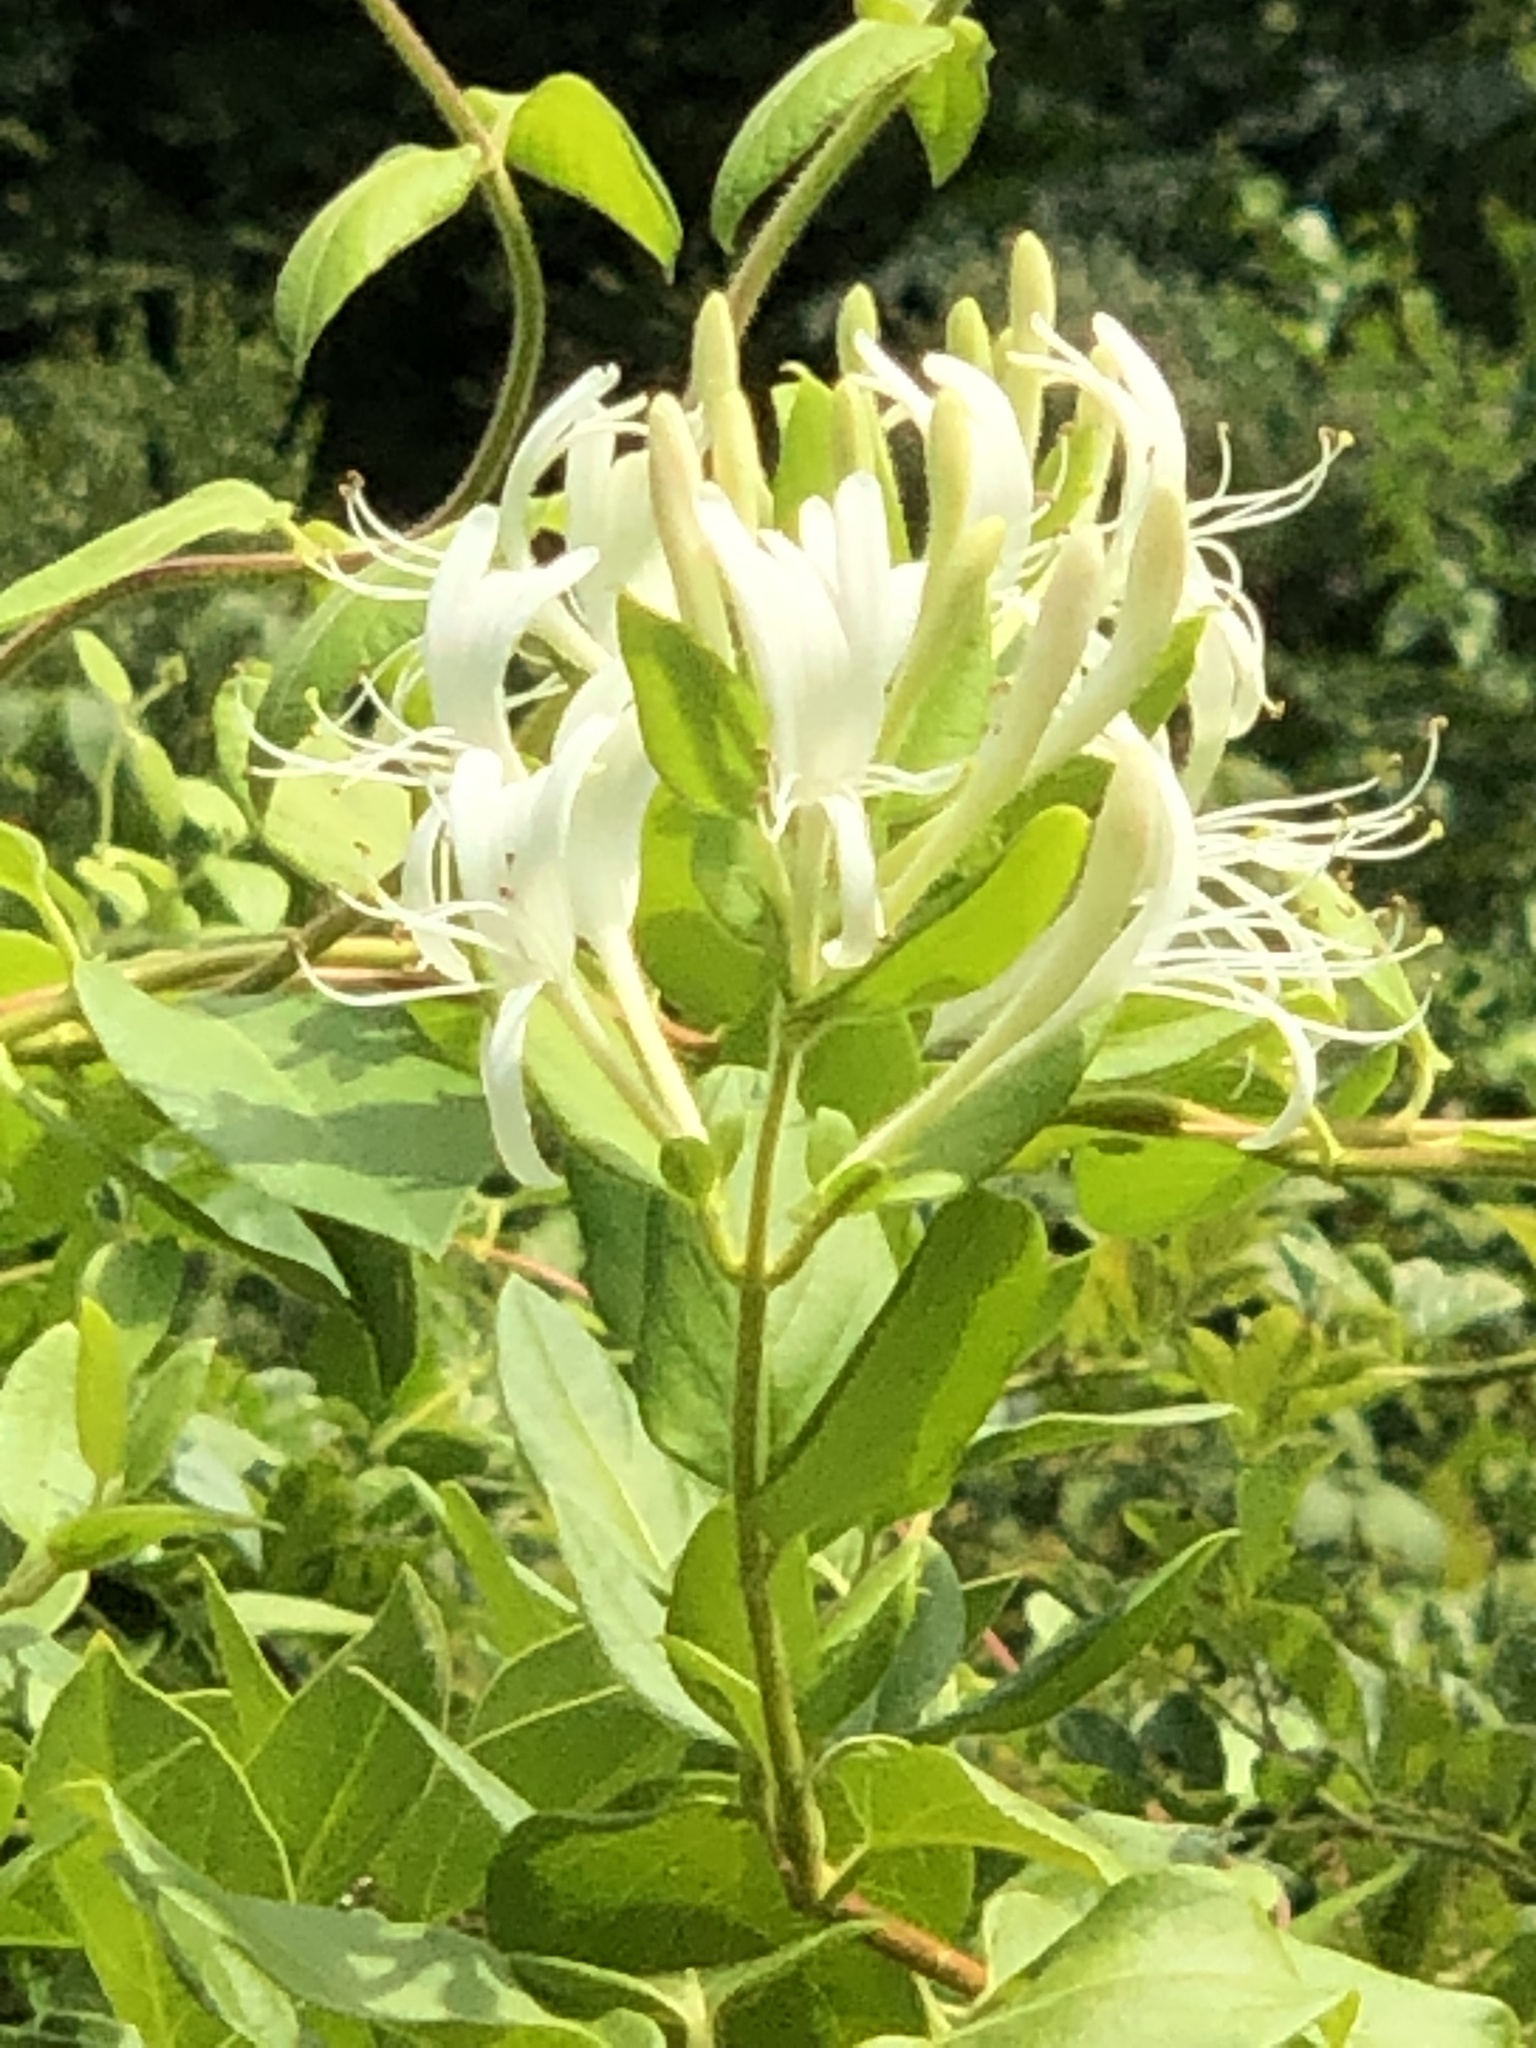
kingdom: Plantae
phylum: Tracheophyta
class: Magnoliopsida
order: Dipsacales
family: Caprifoliaceae
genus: Lonicera
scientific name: Lonicera japonica
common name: Japanese honeysuckle
